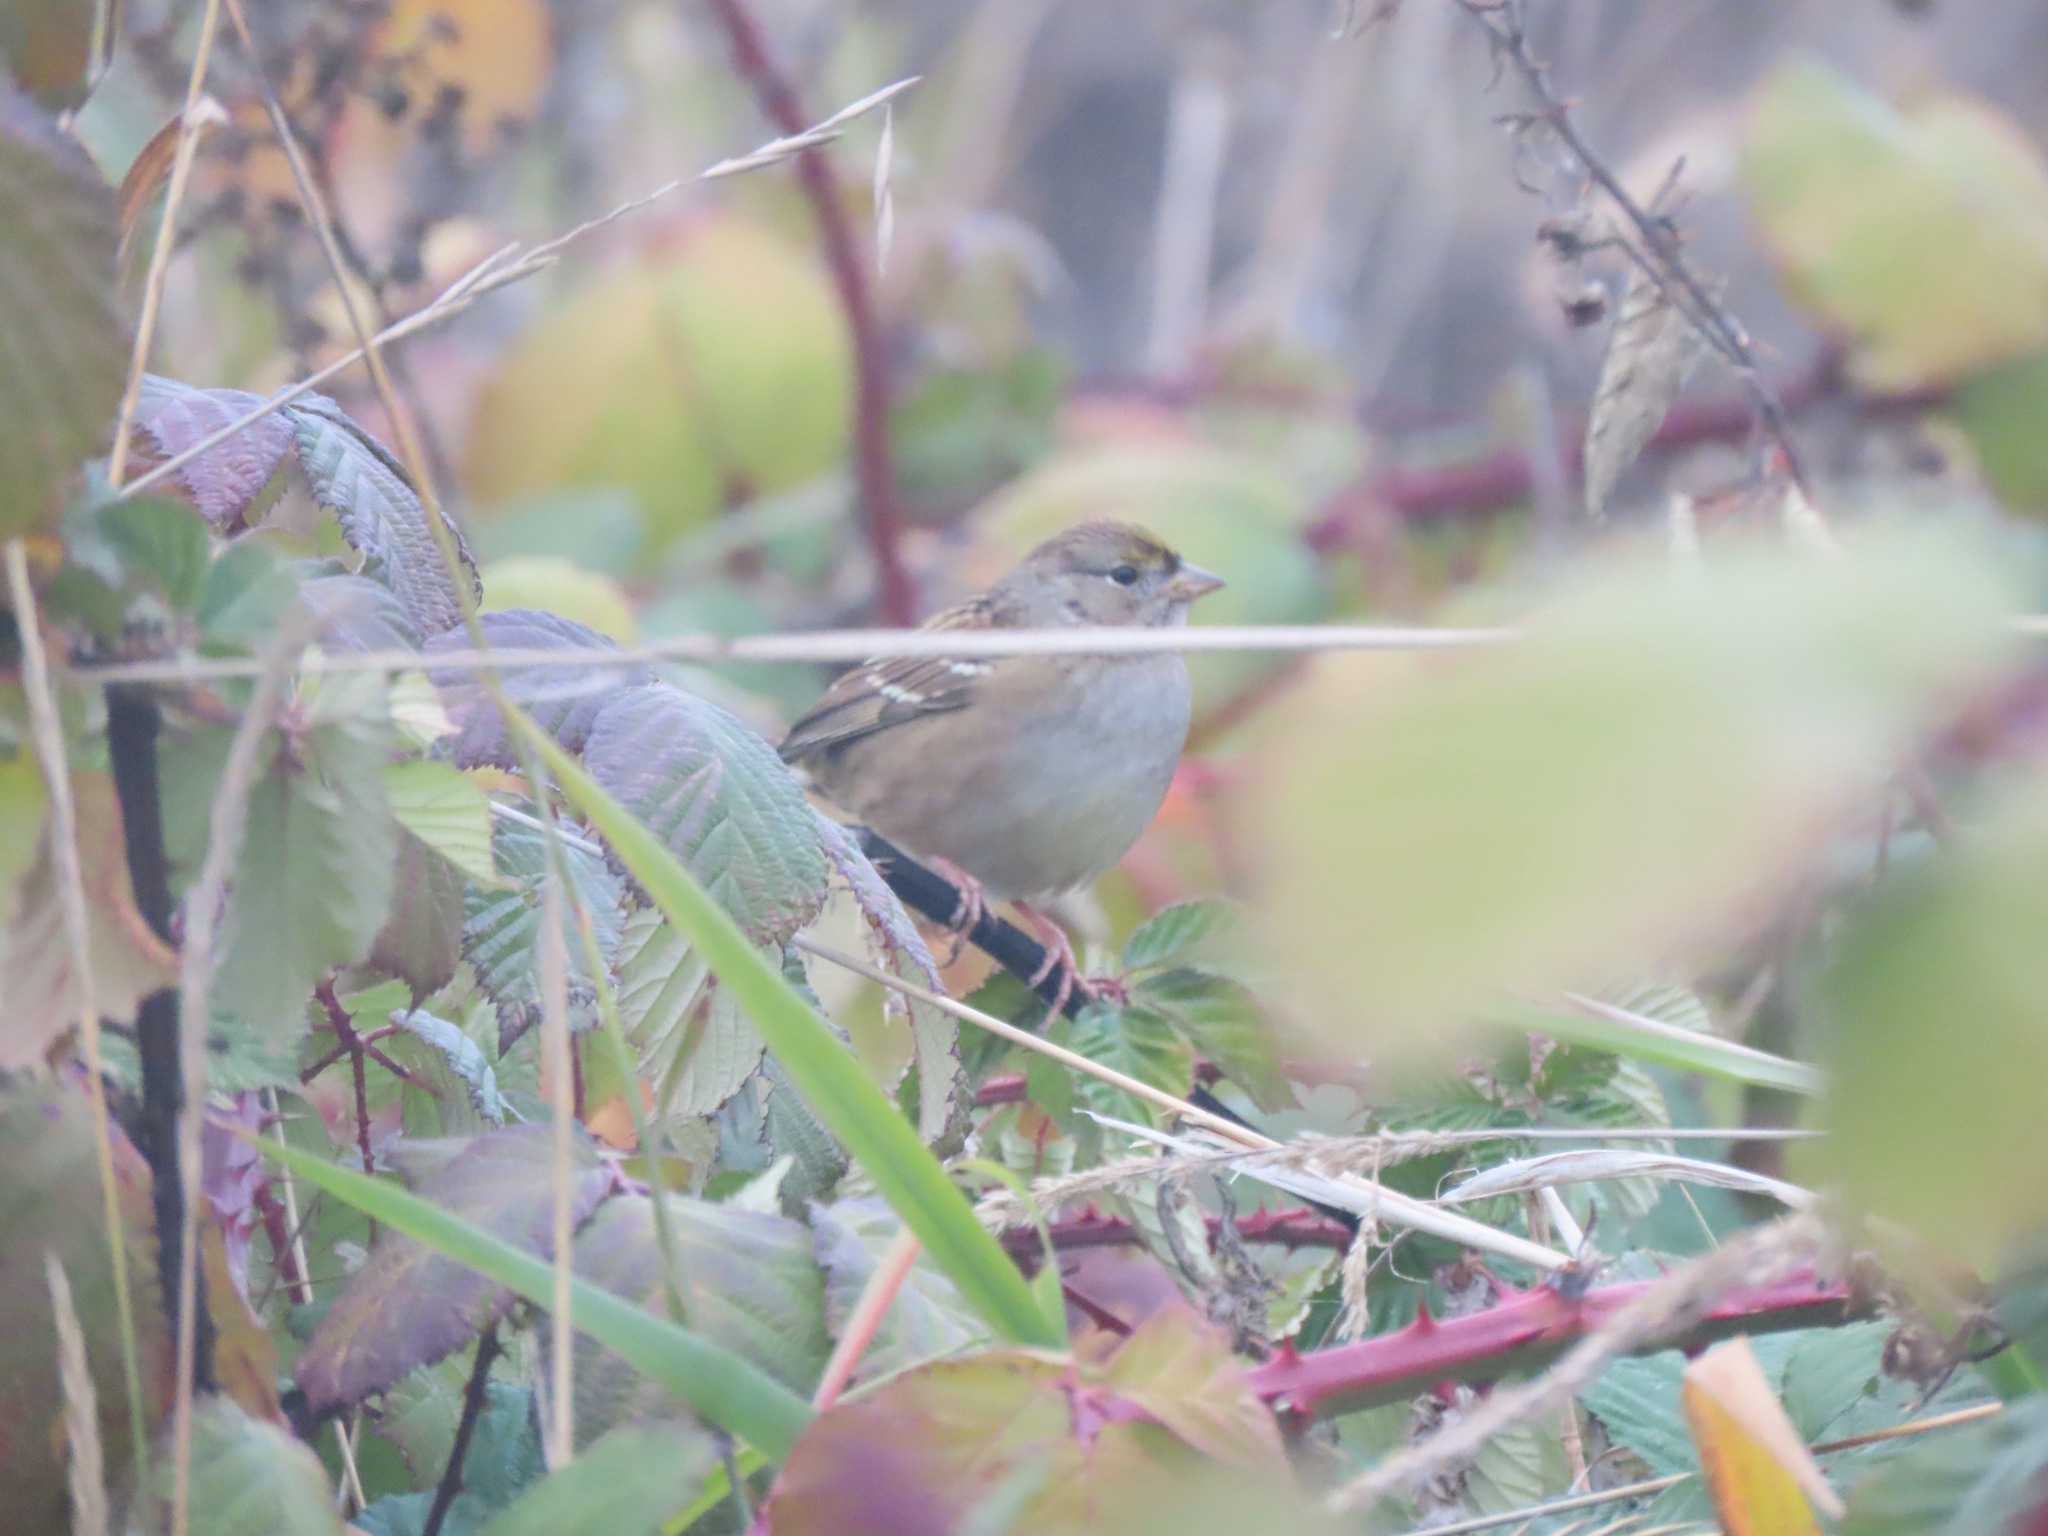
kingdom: Animalia
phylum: Chordata
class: Aves
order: Passeriformes
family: Passerellidae
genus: Zonotrichia
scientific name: Zonotrichia atricapilla
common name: Golden-crowned sparrow
